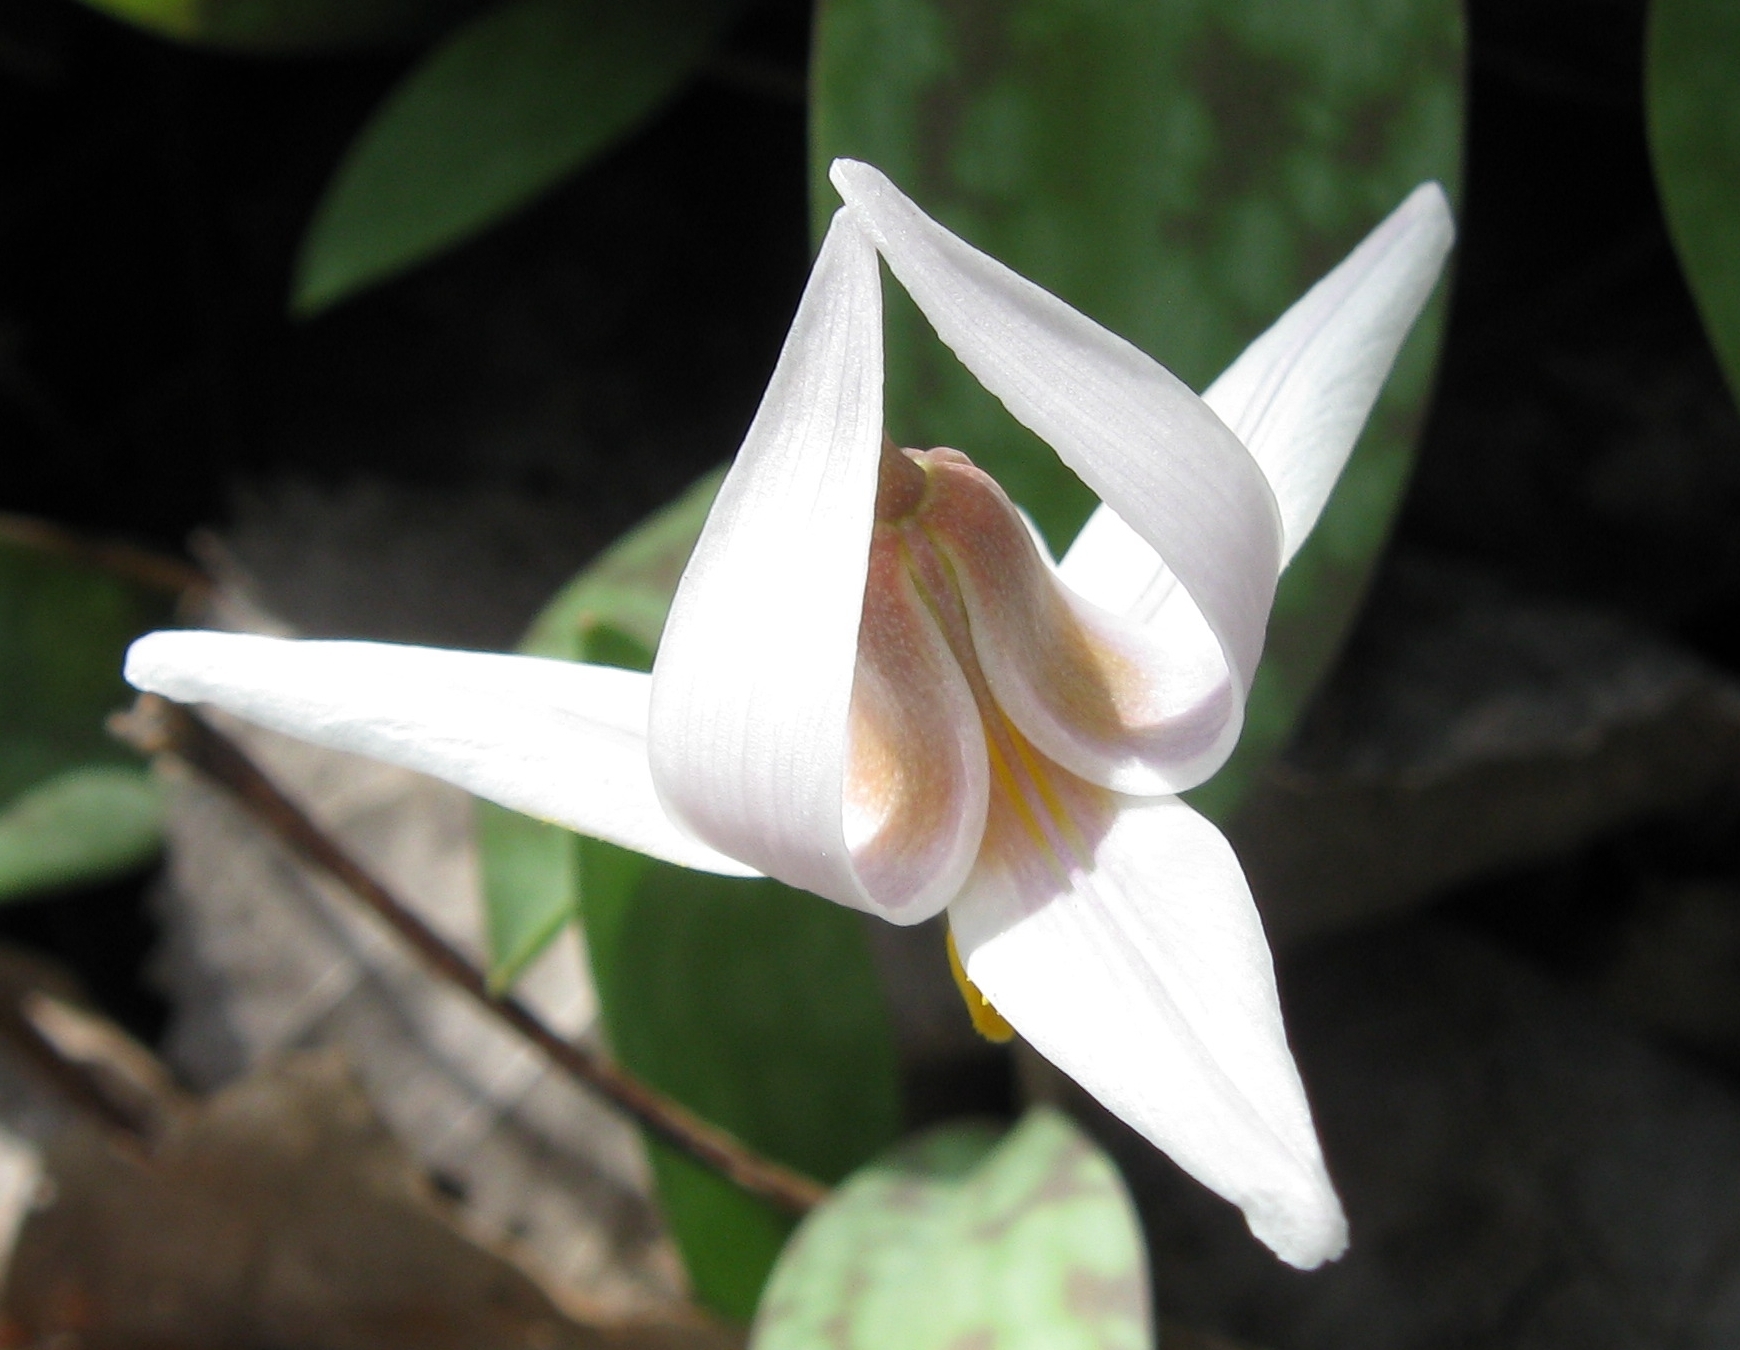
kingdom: Plantae
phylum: Tracheophyta
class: Liliopsida
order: Liliales
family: Liliaceae
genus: Erythronium
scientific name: Erythronium albidum
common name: White trout-lily
